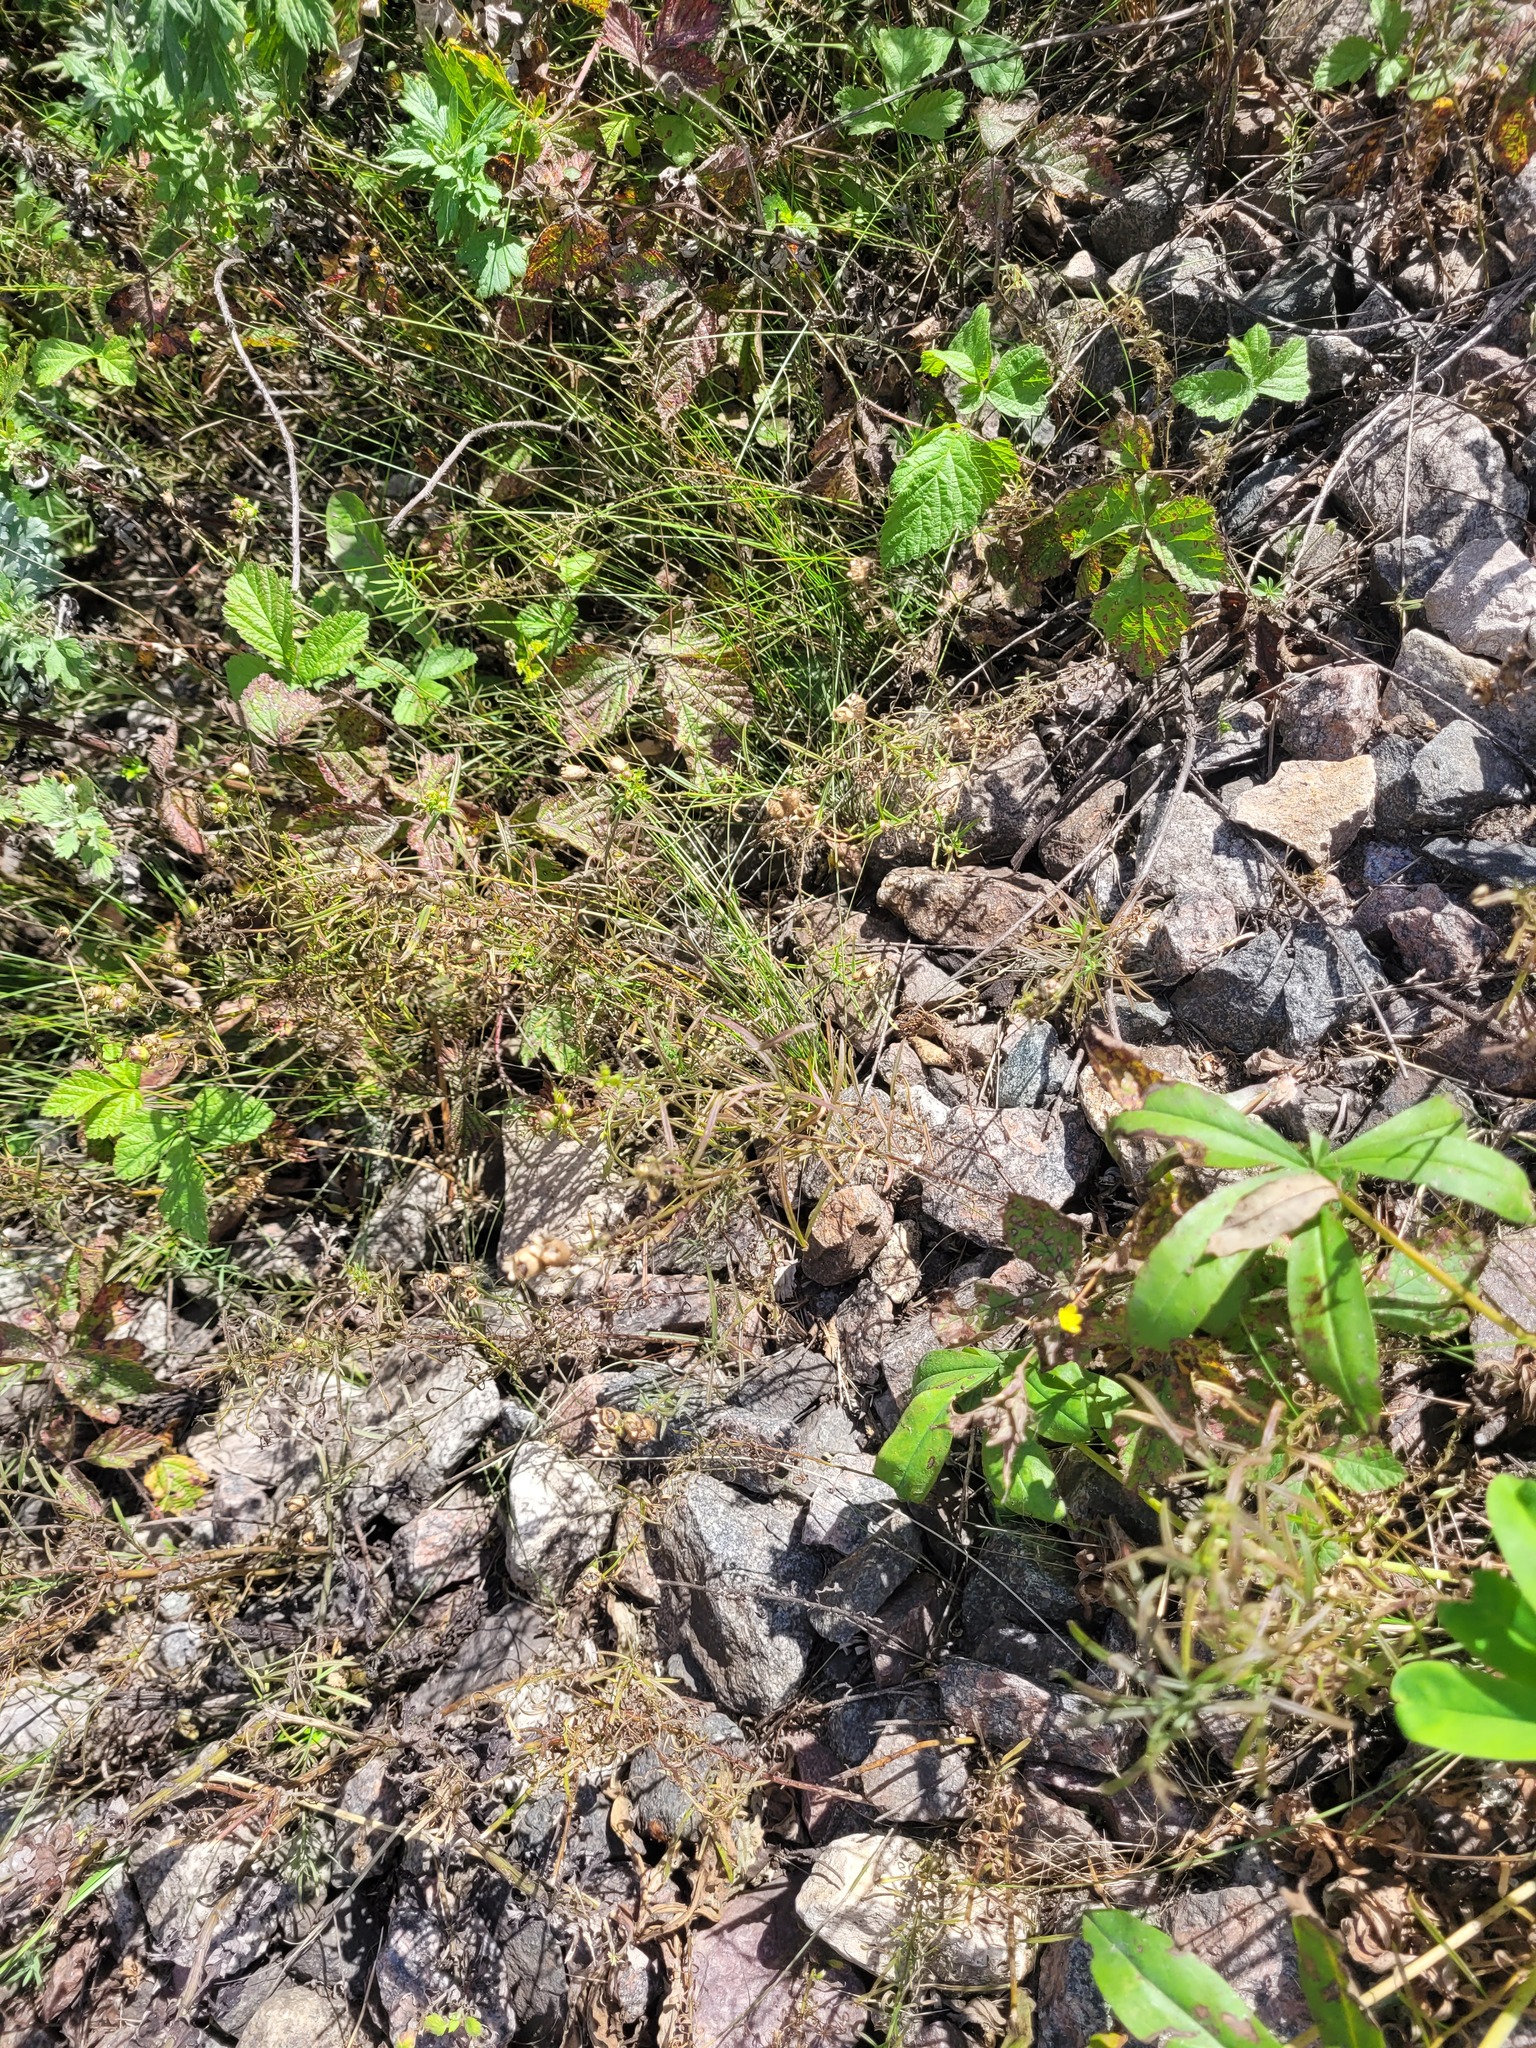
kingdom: Plantae
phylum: Tracheophyta
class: Magnoliopsida
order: Lamiales
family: Plantaginaceae
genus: Linaria
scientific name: Linaria vulgaris
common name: Butter and eggs
